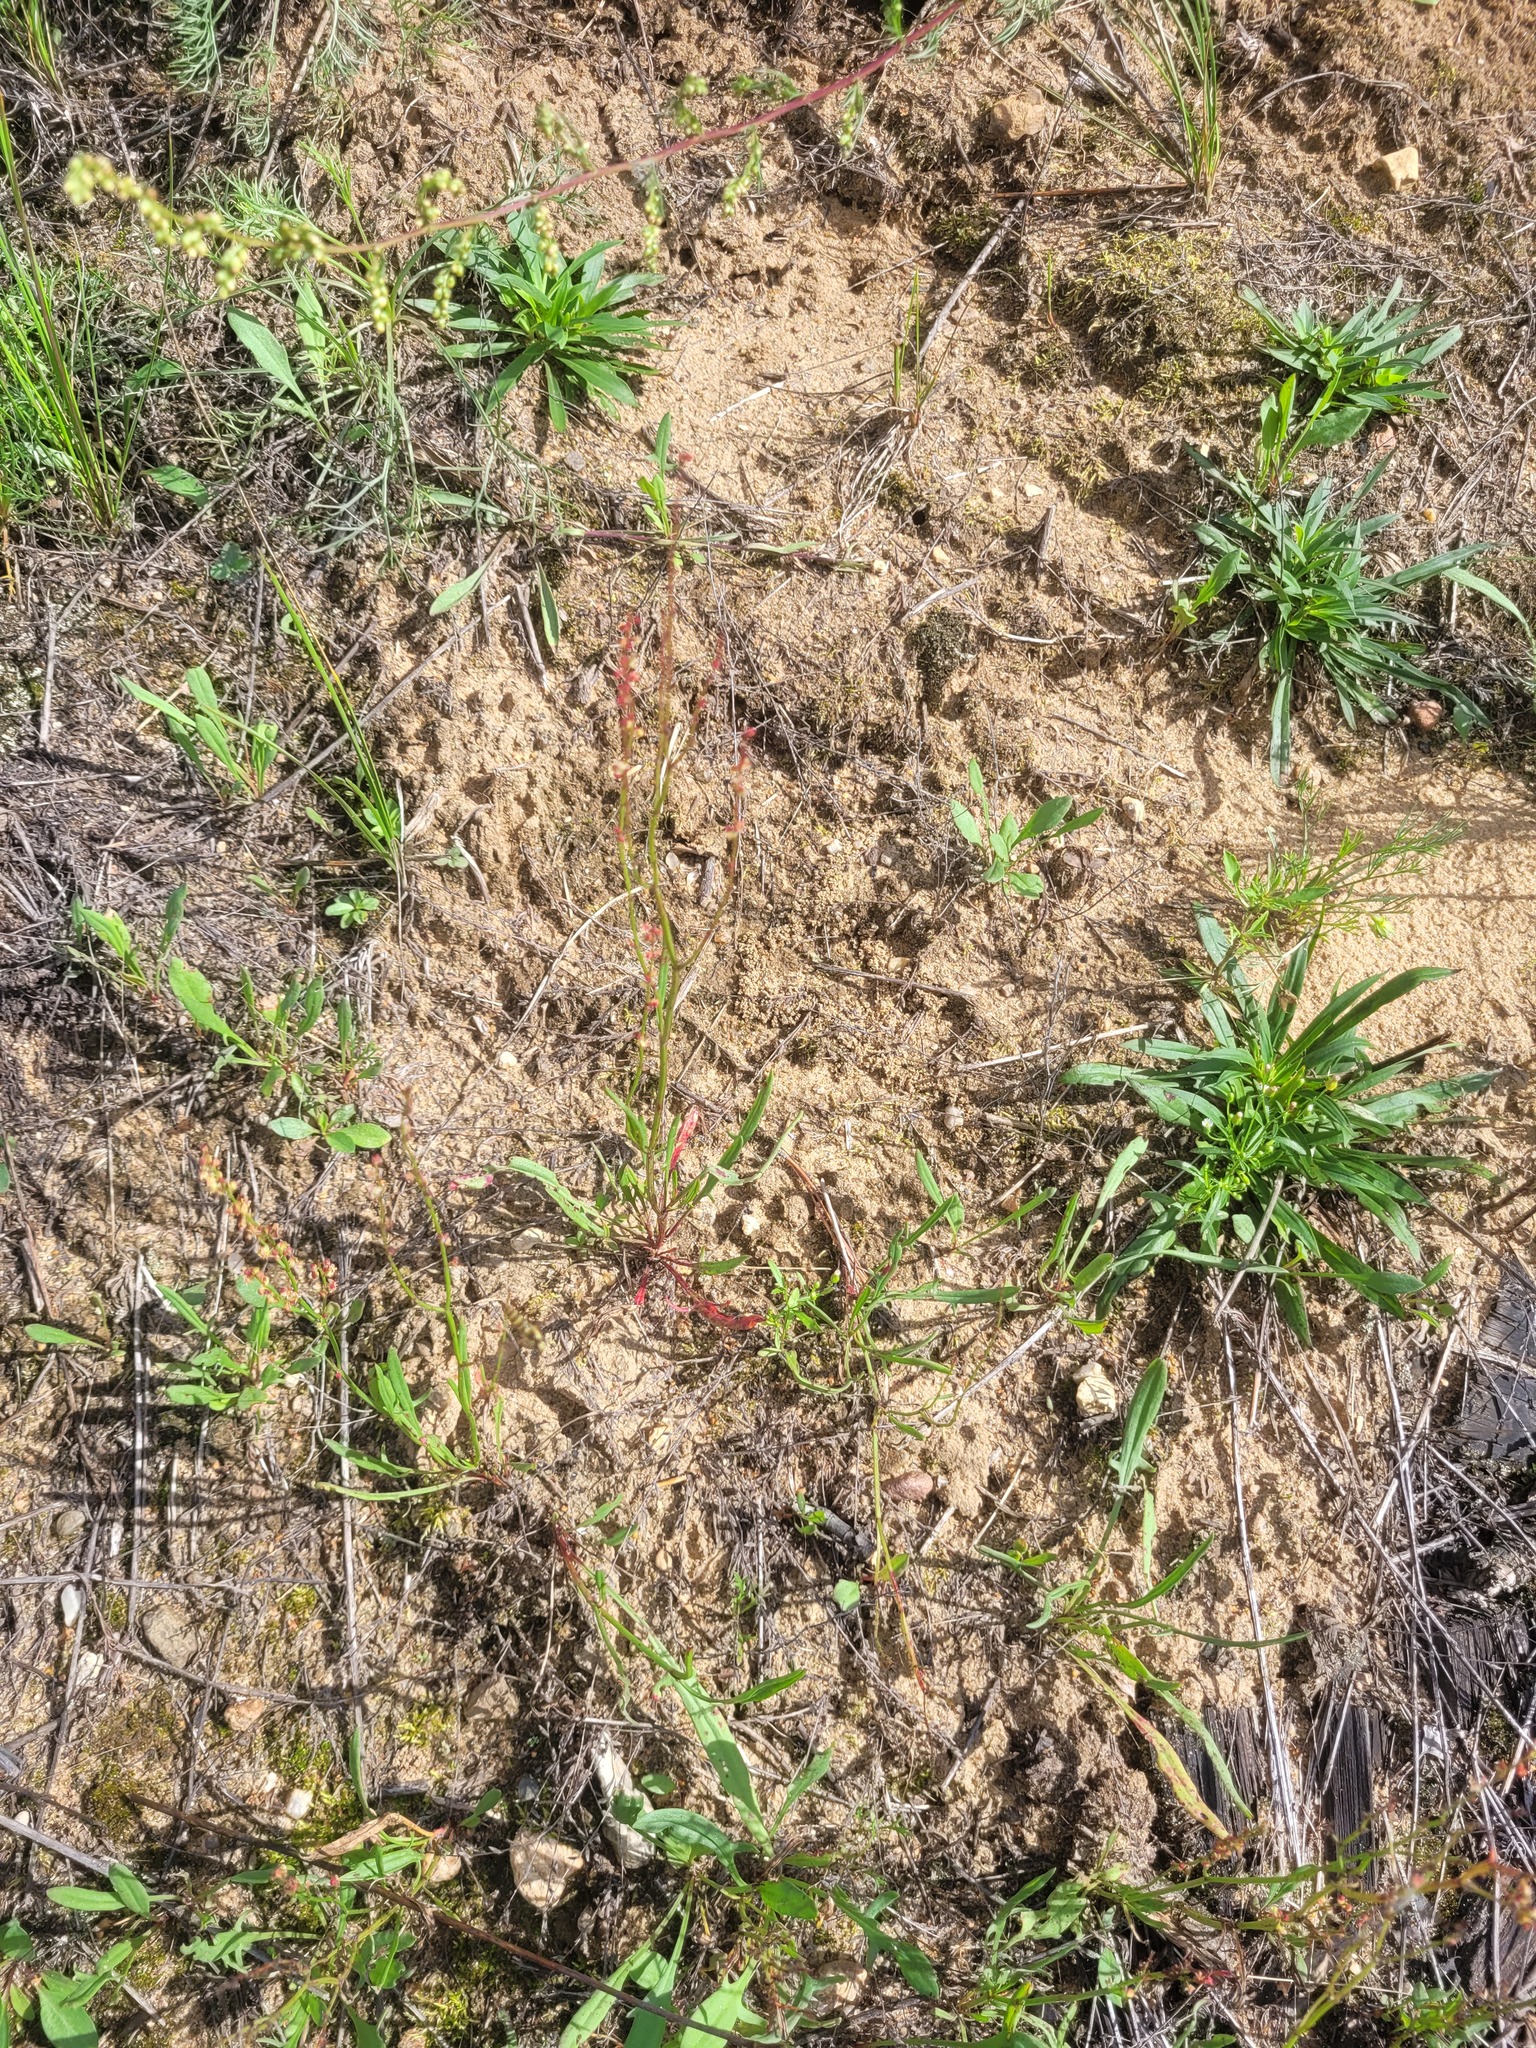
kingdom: Plantae
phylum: Tracheophyta
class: Magnoliopsida
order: Caryophyllales
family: Polygonaceae
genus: Rumex
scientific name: Rumex acetosella
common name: Common sheep sorrel
